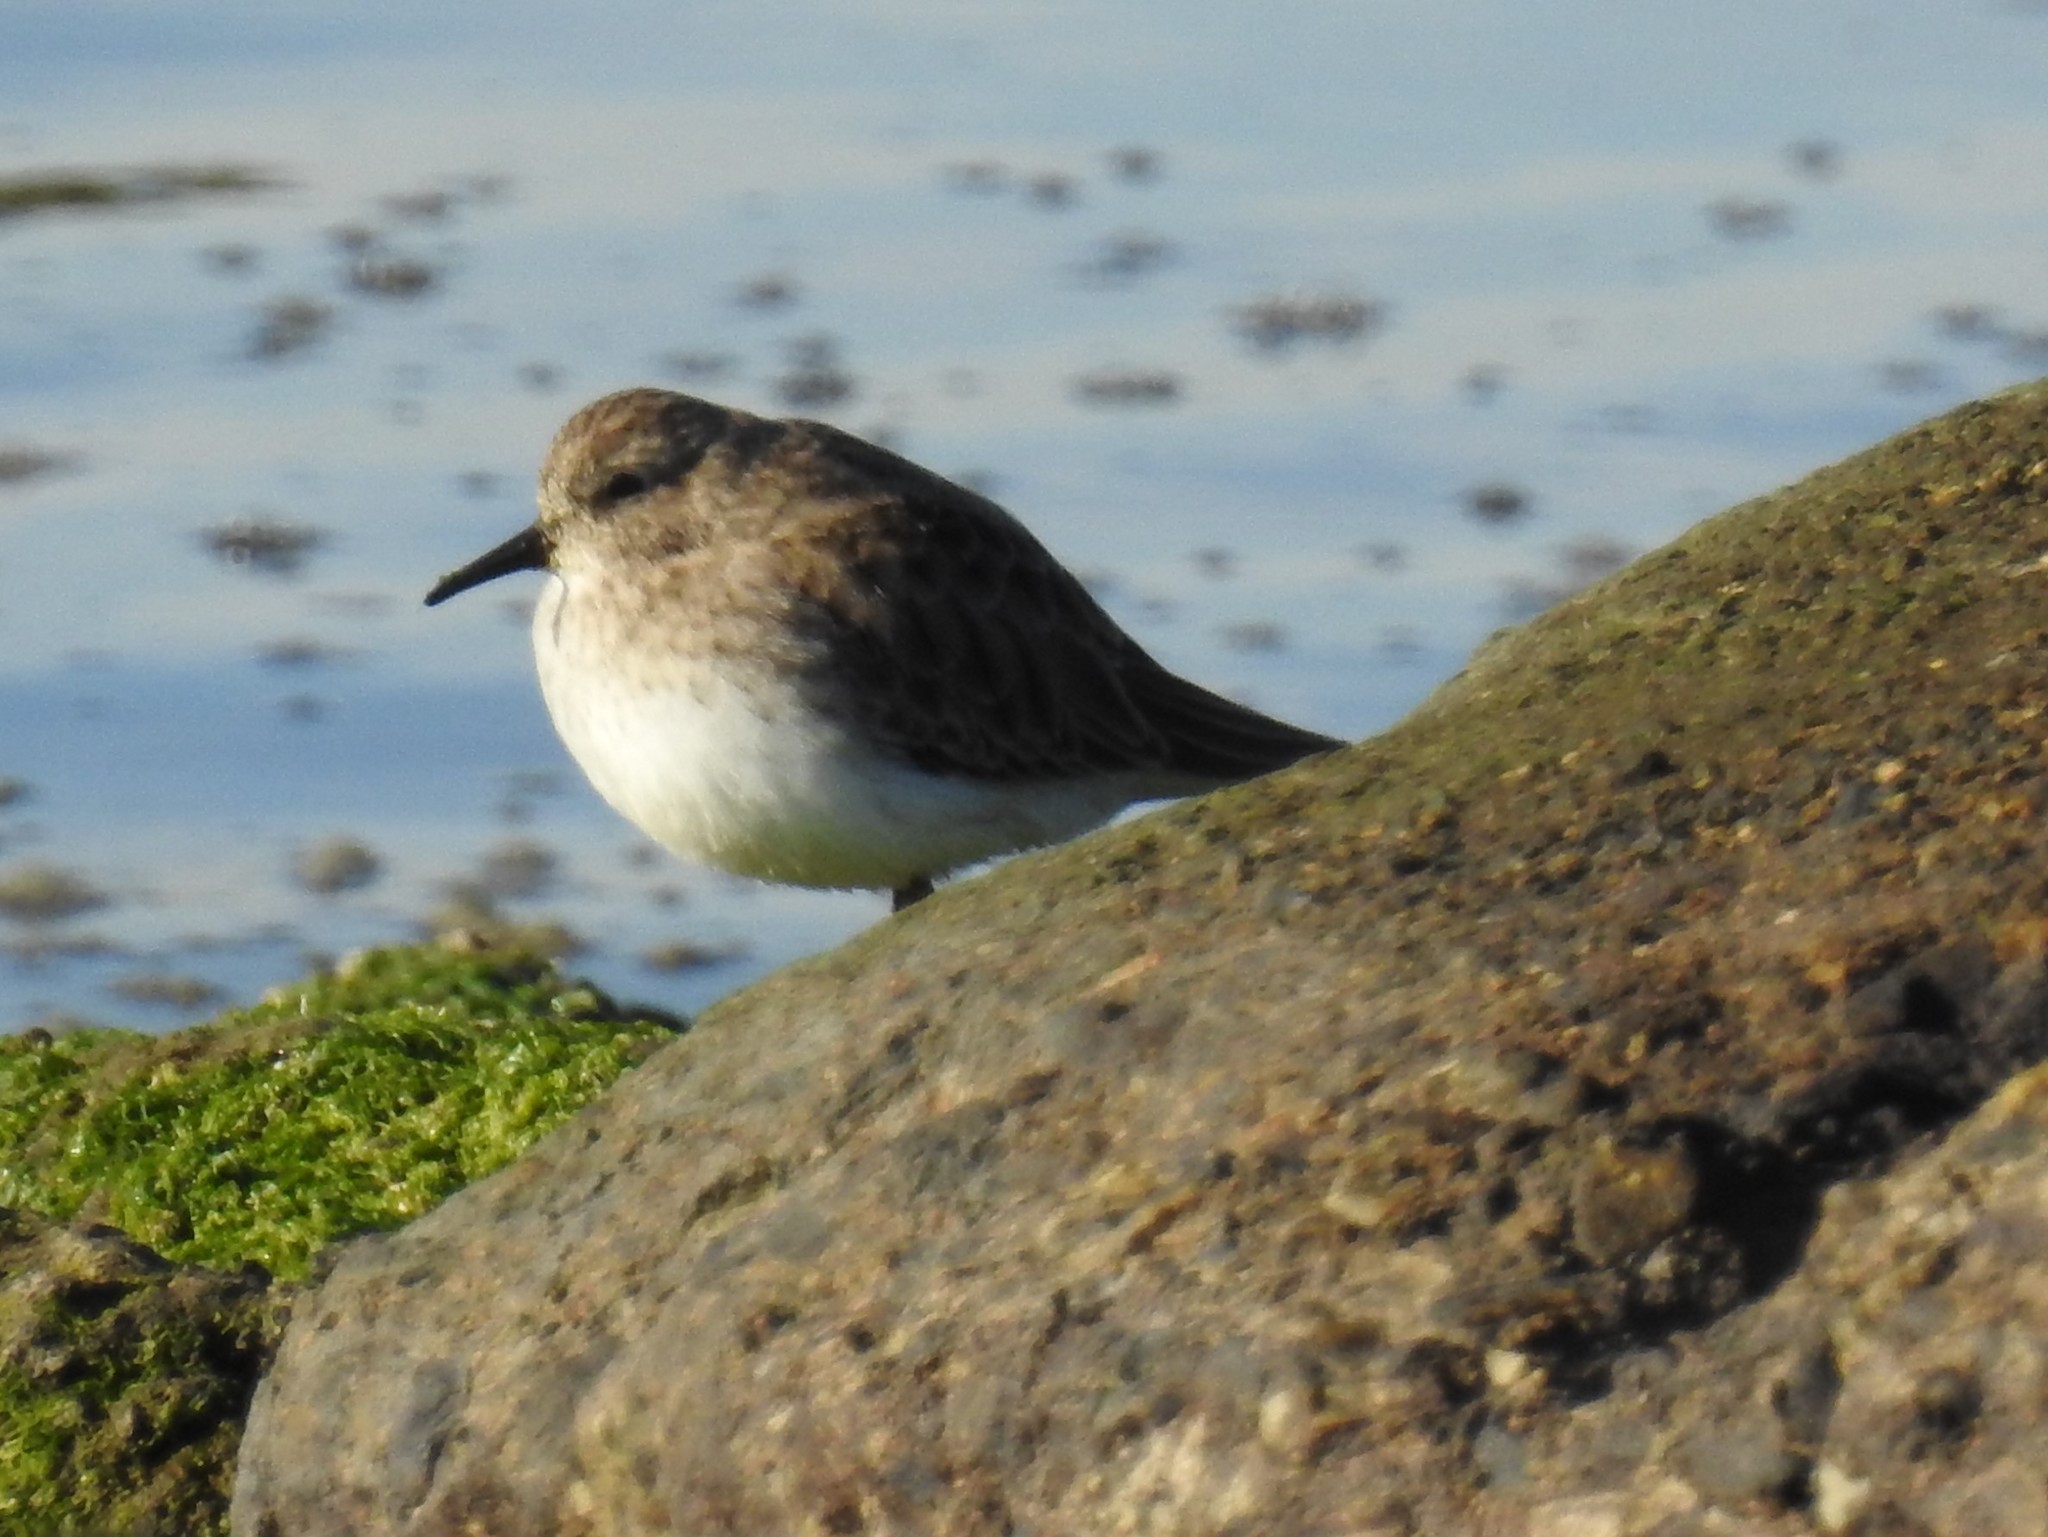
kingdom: Animalia
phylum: Chordata
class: Aves
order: Charadriiformes
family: Scolopacidae
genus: Calidris
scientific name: Calidris minutilla
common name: Least sandpiper
